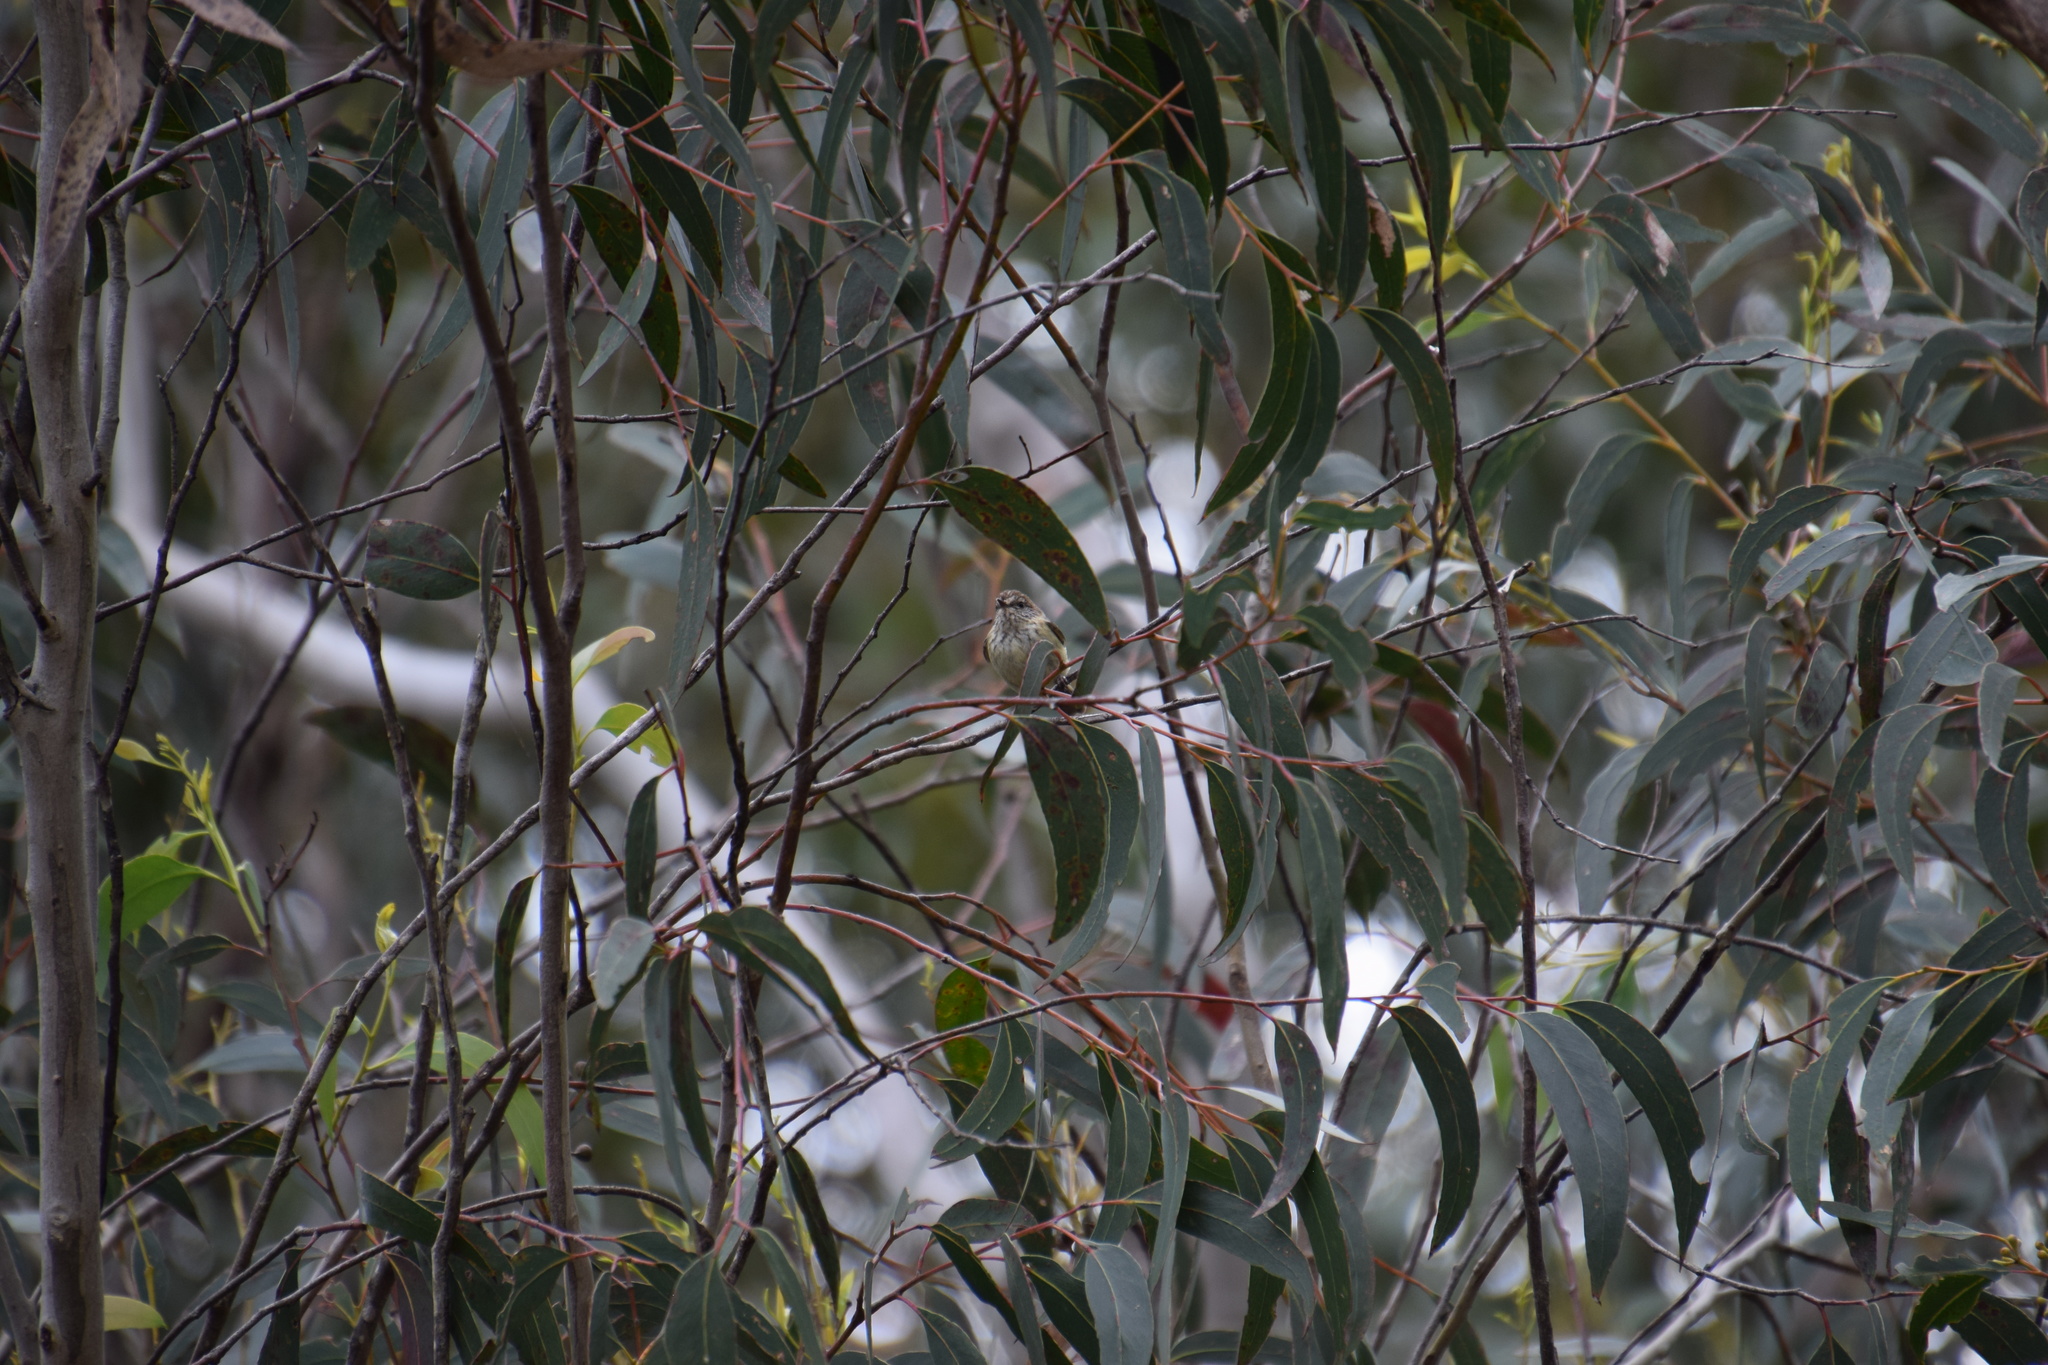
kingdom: Animalia
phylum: Chordata
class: Aves
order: Passeriformes
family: Acanthizidae
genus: Acanthiza
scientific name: Acanthiza lineata
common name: Striated thornbill
